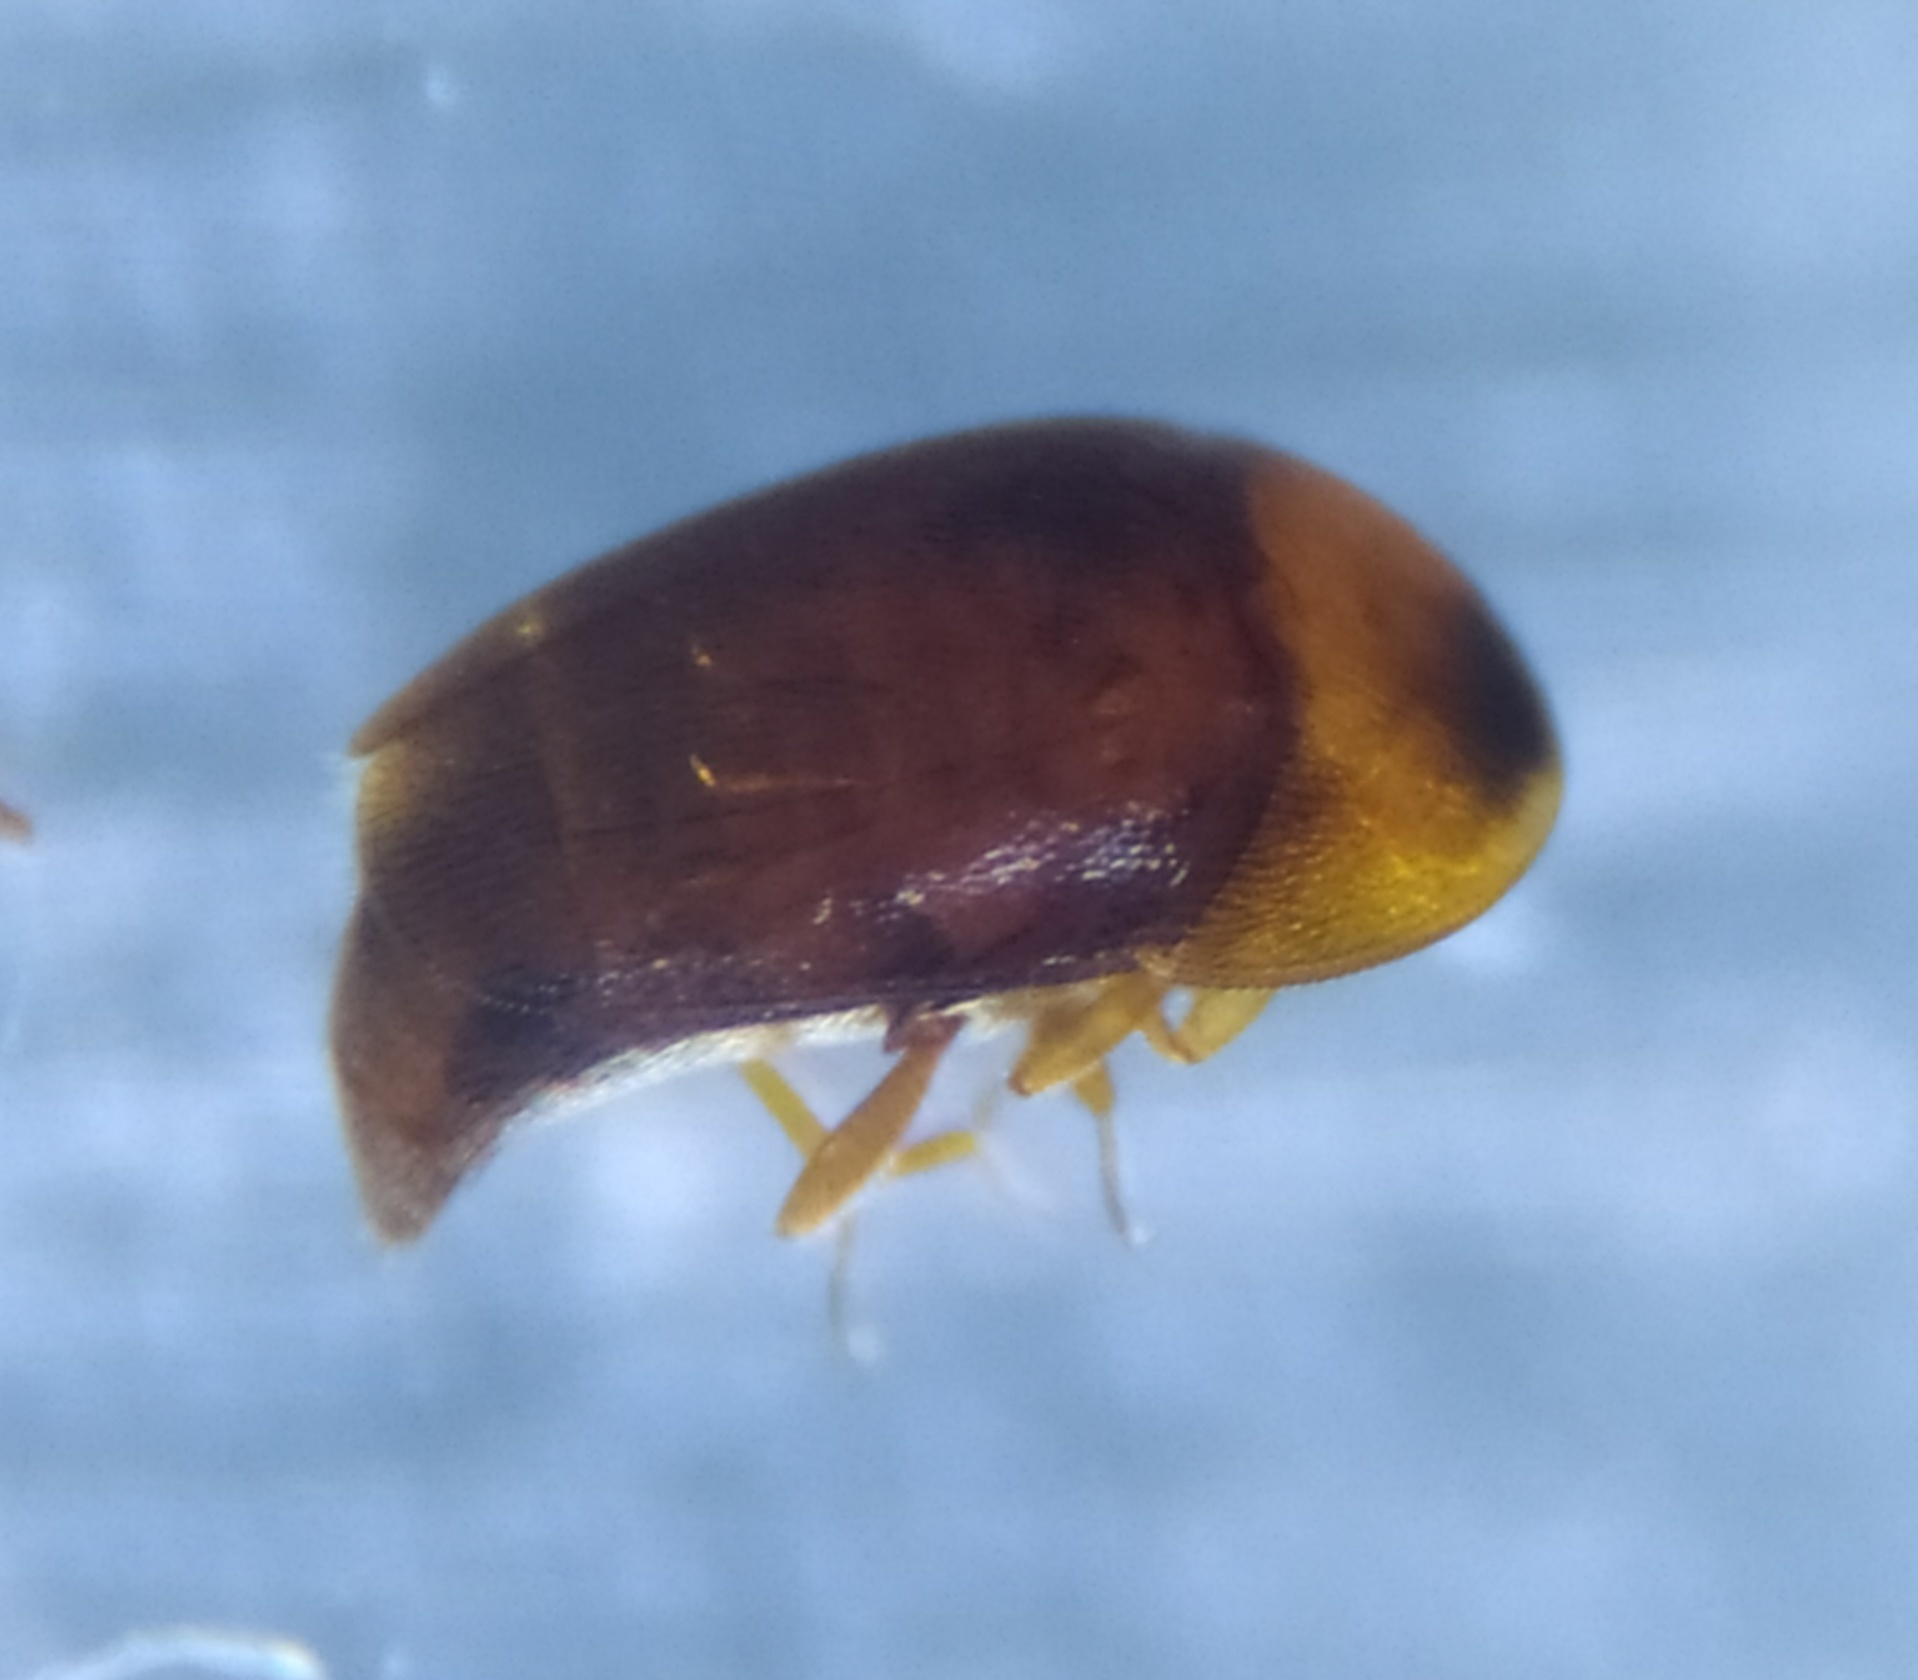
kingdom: Animalia
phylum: Arthropoda
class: Insecta
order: Coleoptera
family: Corylophidae
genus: Sericoderus
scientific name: Sericoderus lateralis
